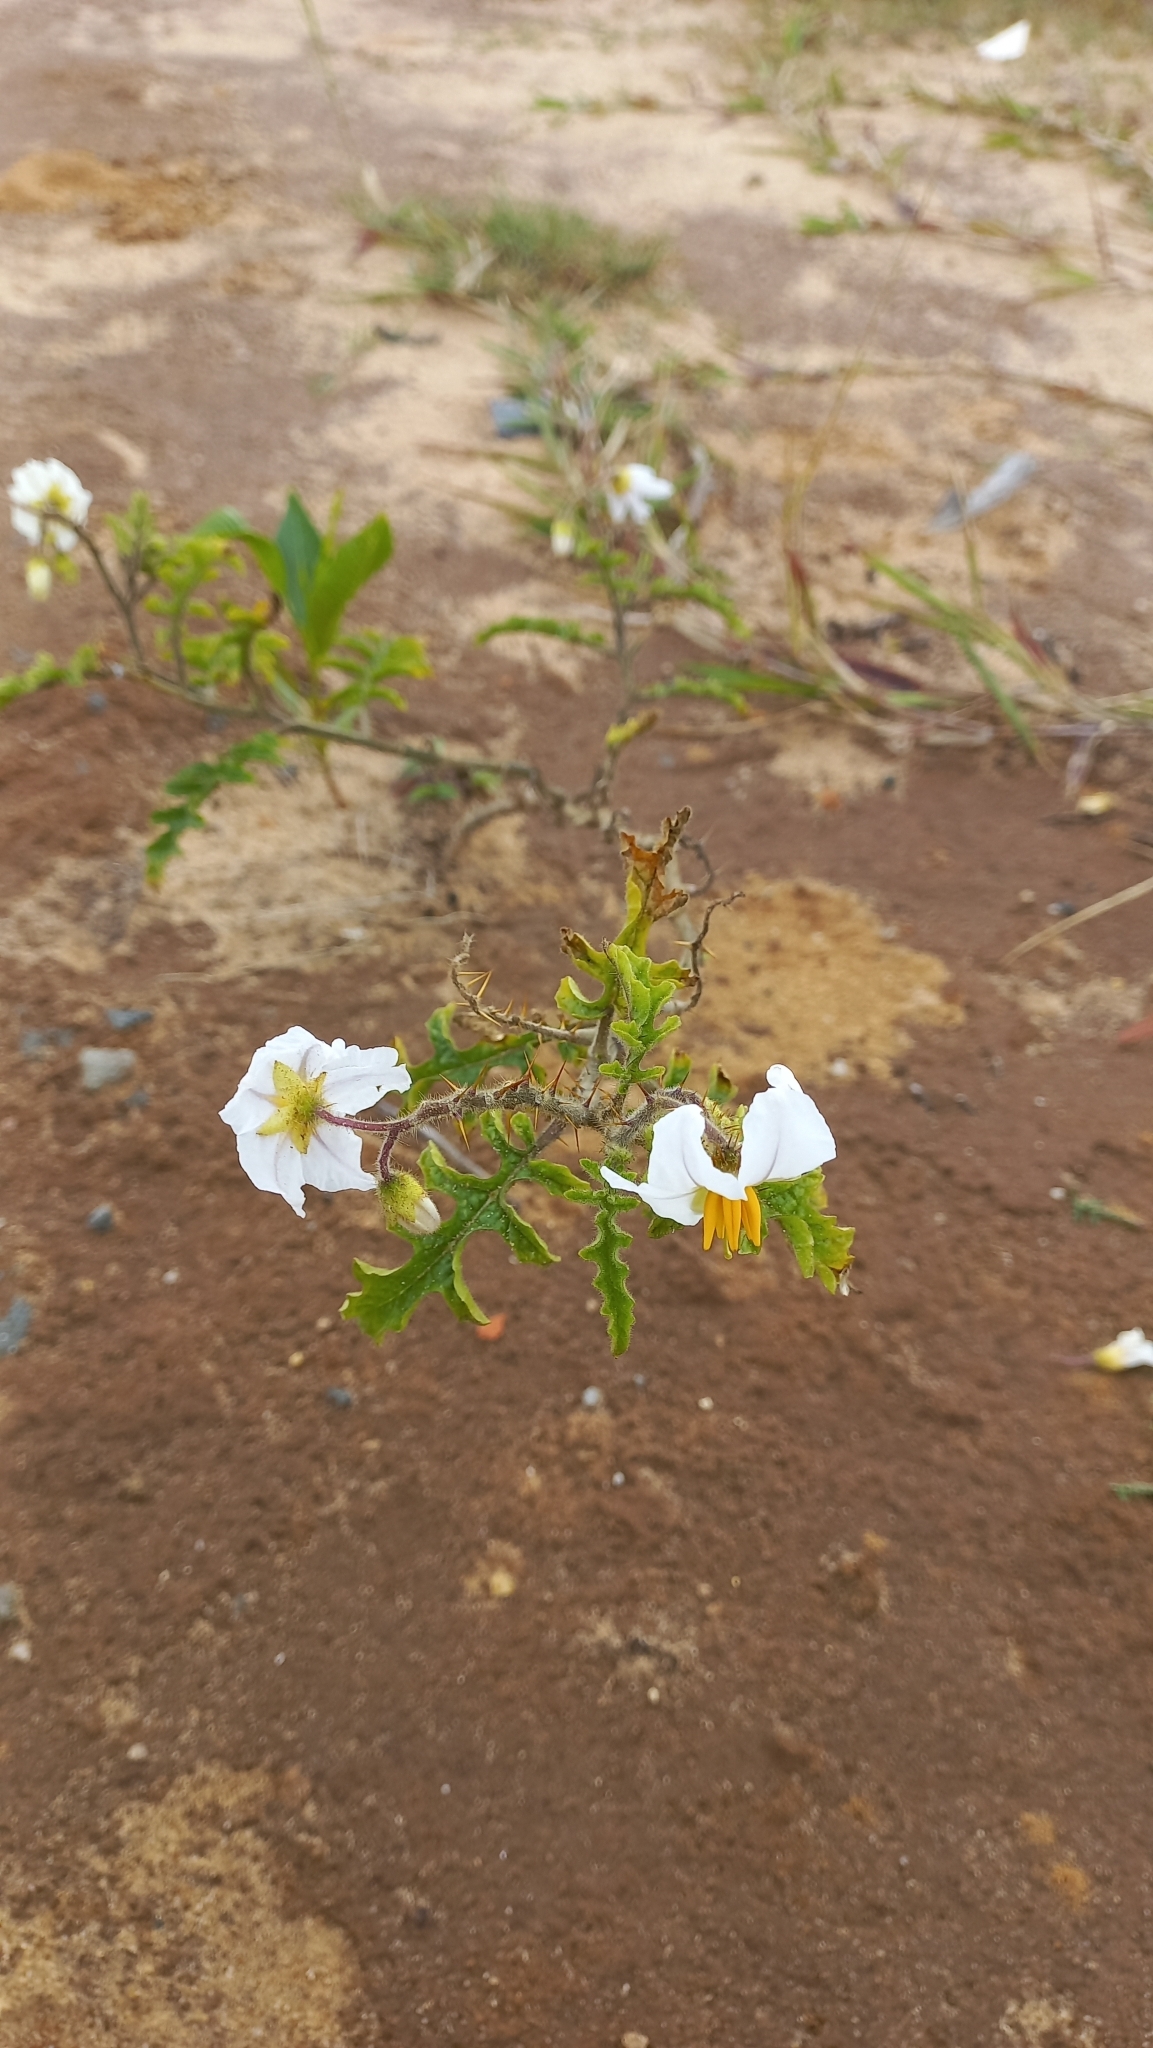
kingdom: Plantae
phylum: Tracheophyta
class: Magnoliopsida
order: Solanales
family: Solanaceae
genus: Solanum
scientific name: Solanum sisymbriifolium
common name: Red buffalo-bur
